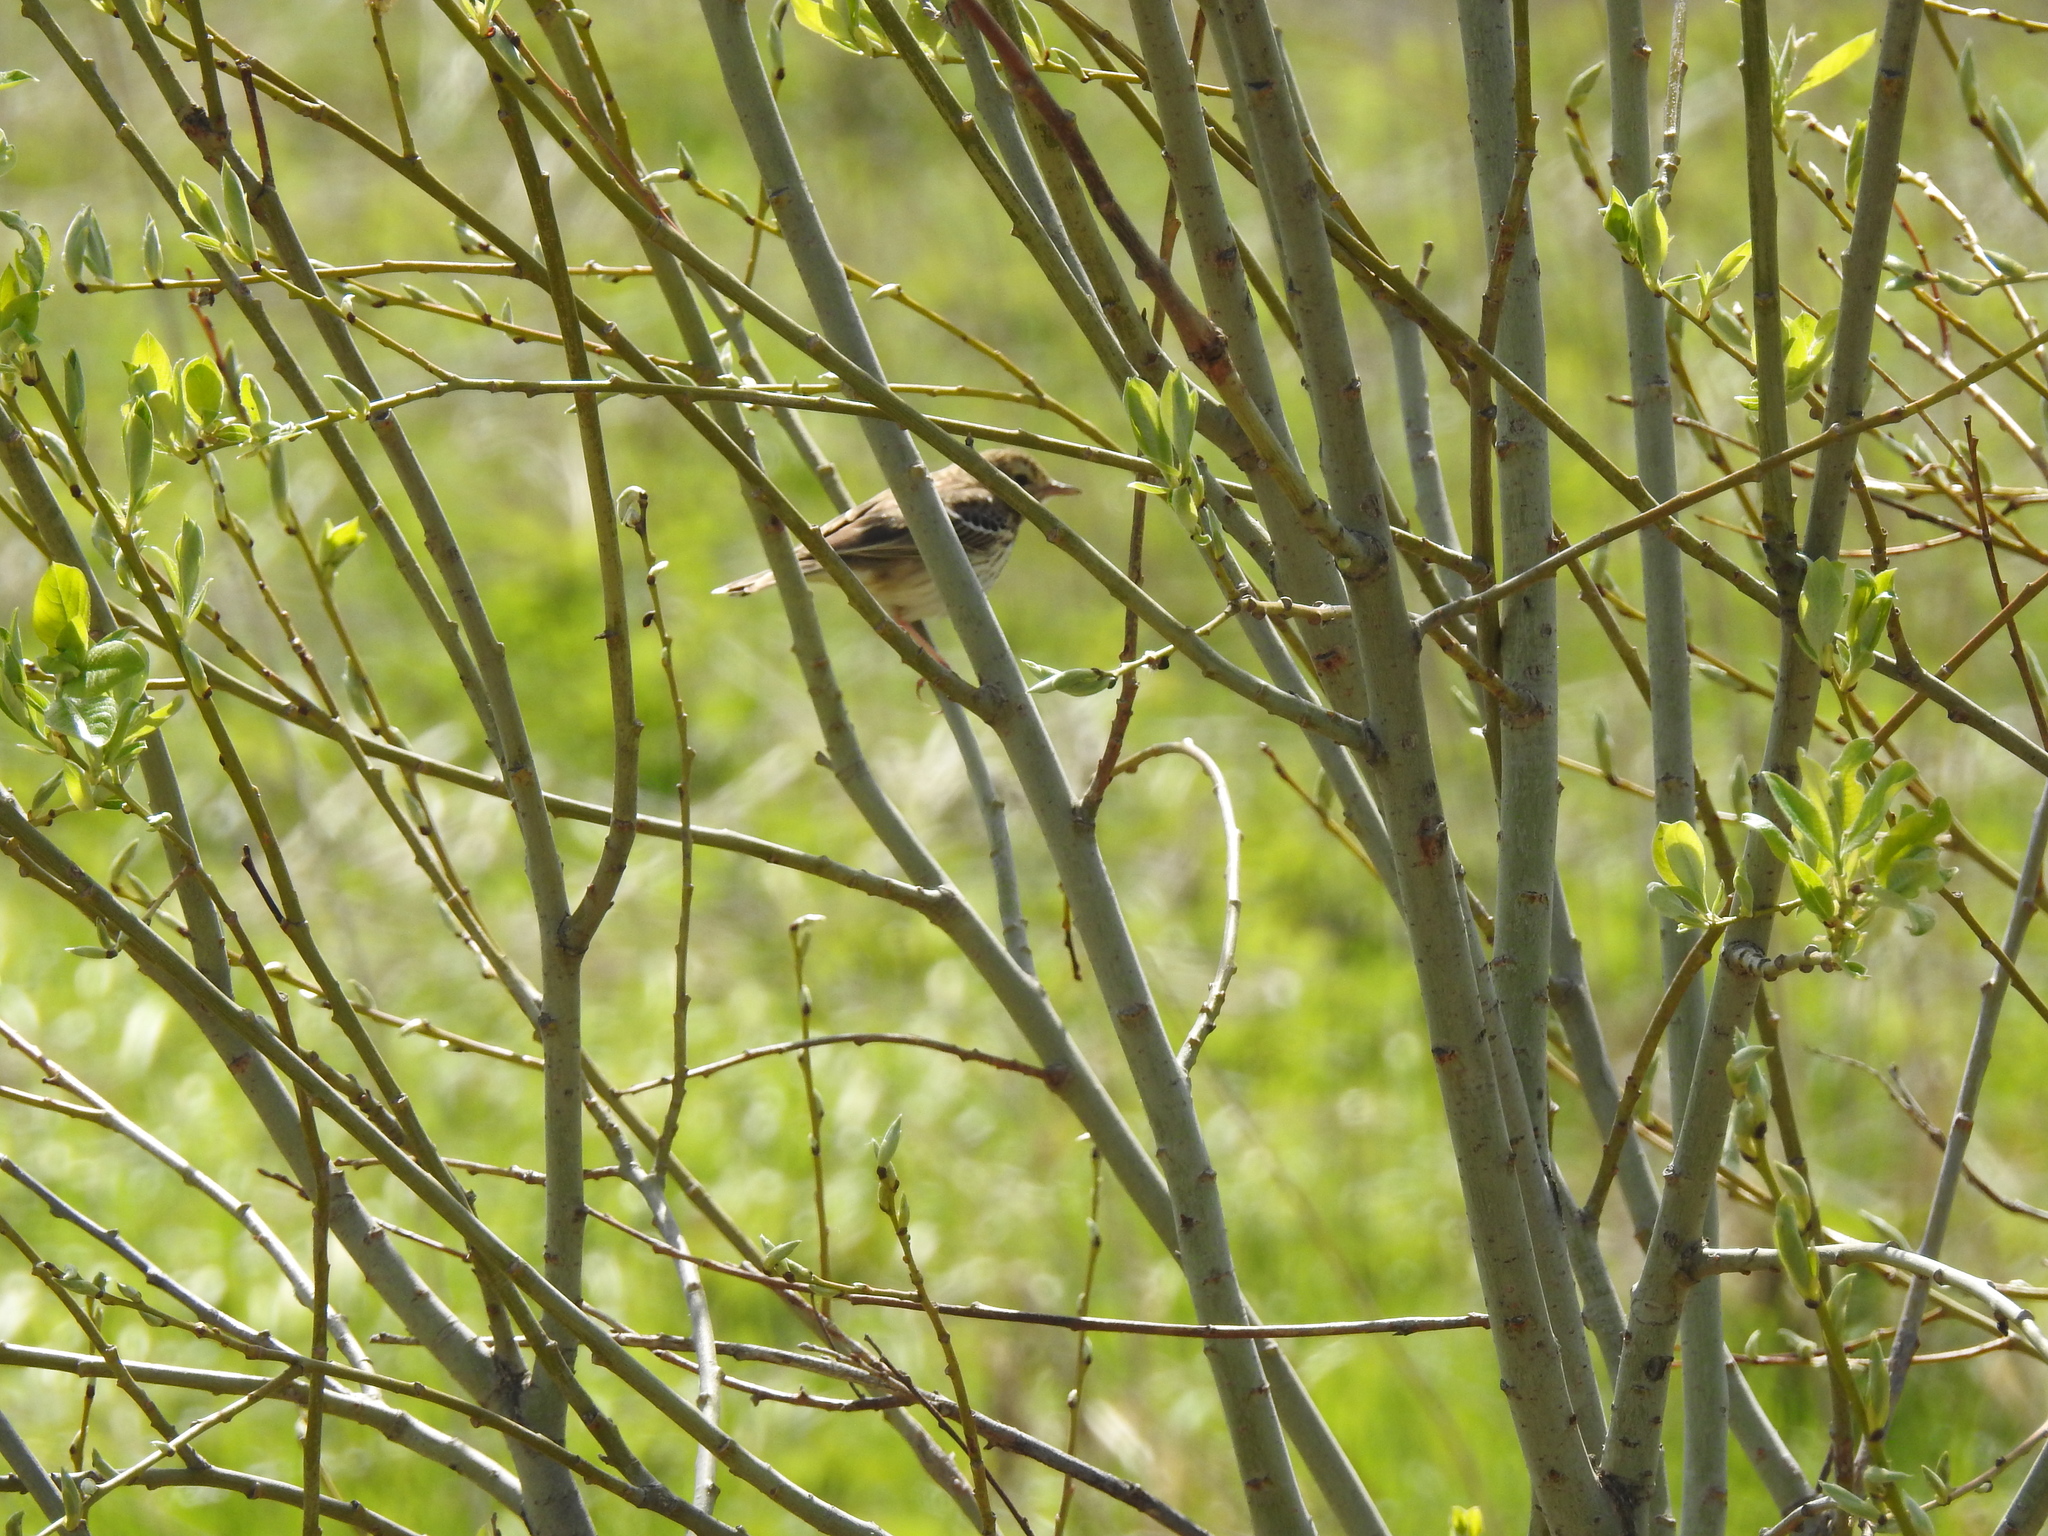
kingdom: Animalia
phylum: Chordata
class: Aves
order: Passeriformes
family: Motacillidae
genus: Anthus
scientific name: Anthus trivialis
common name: Tree pipit
